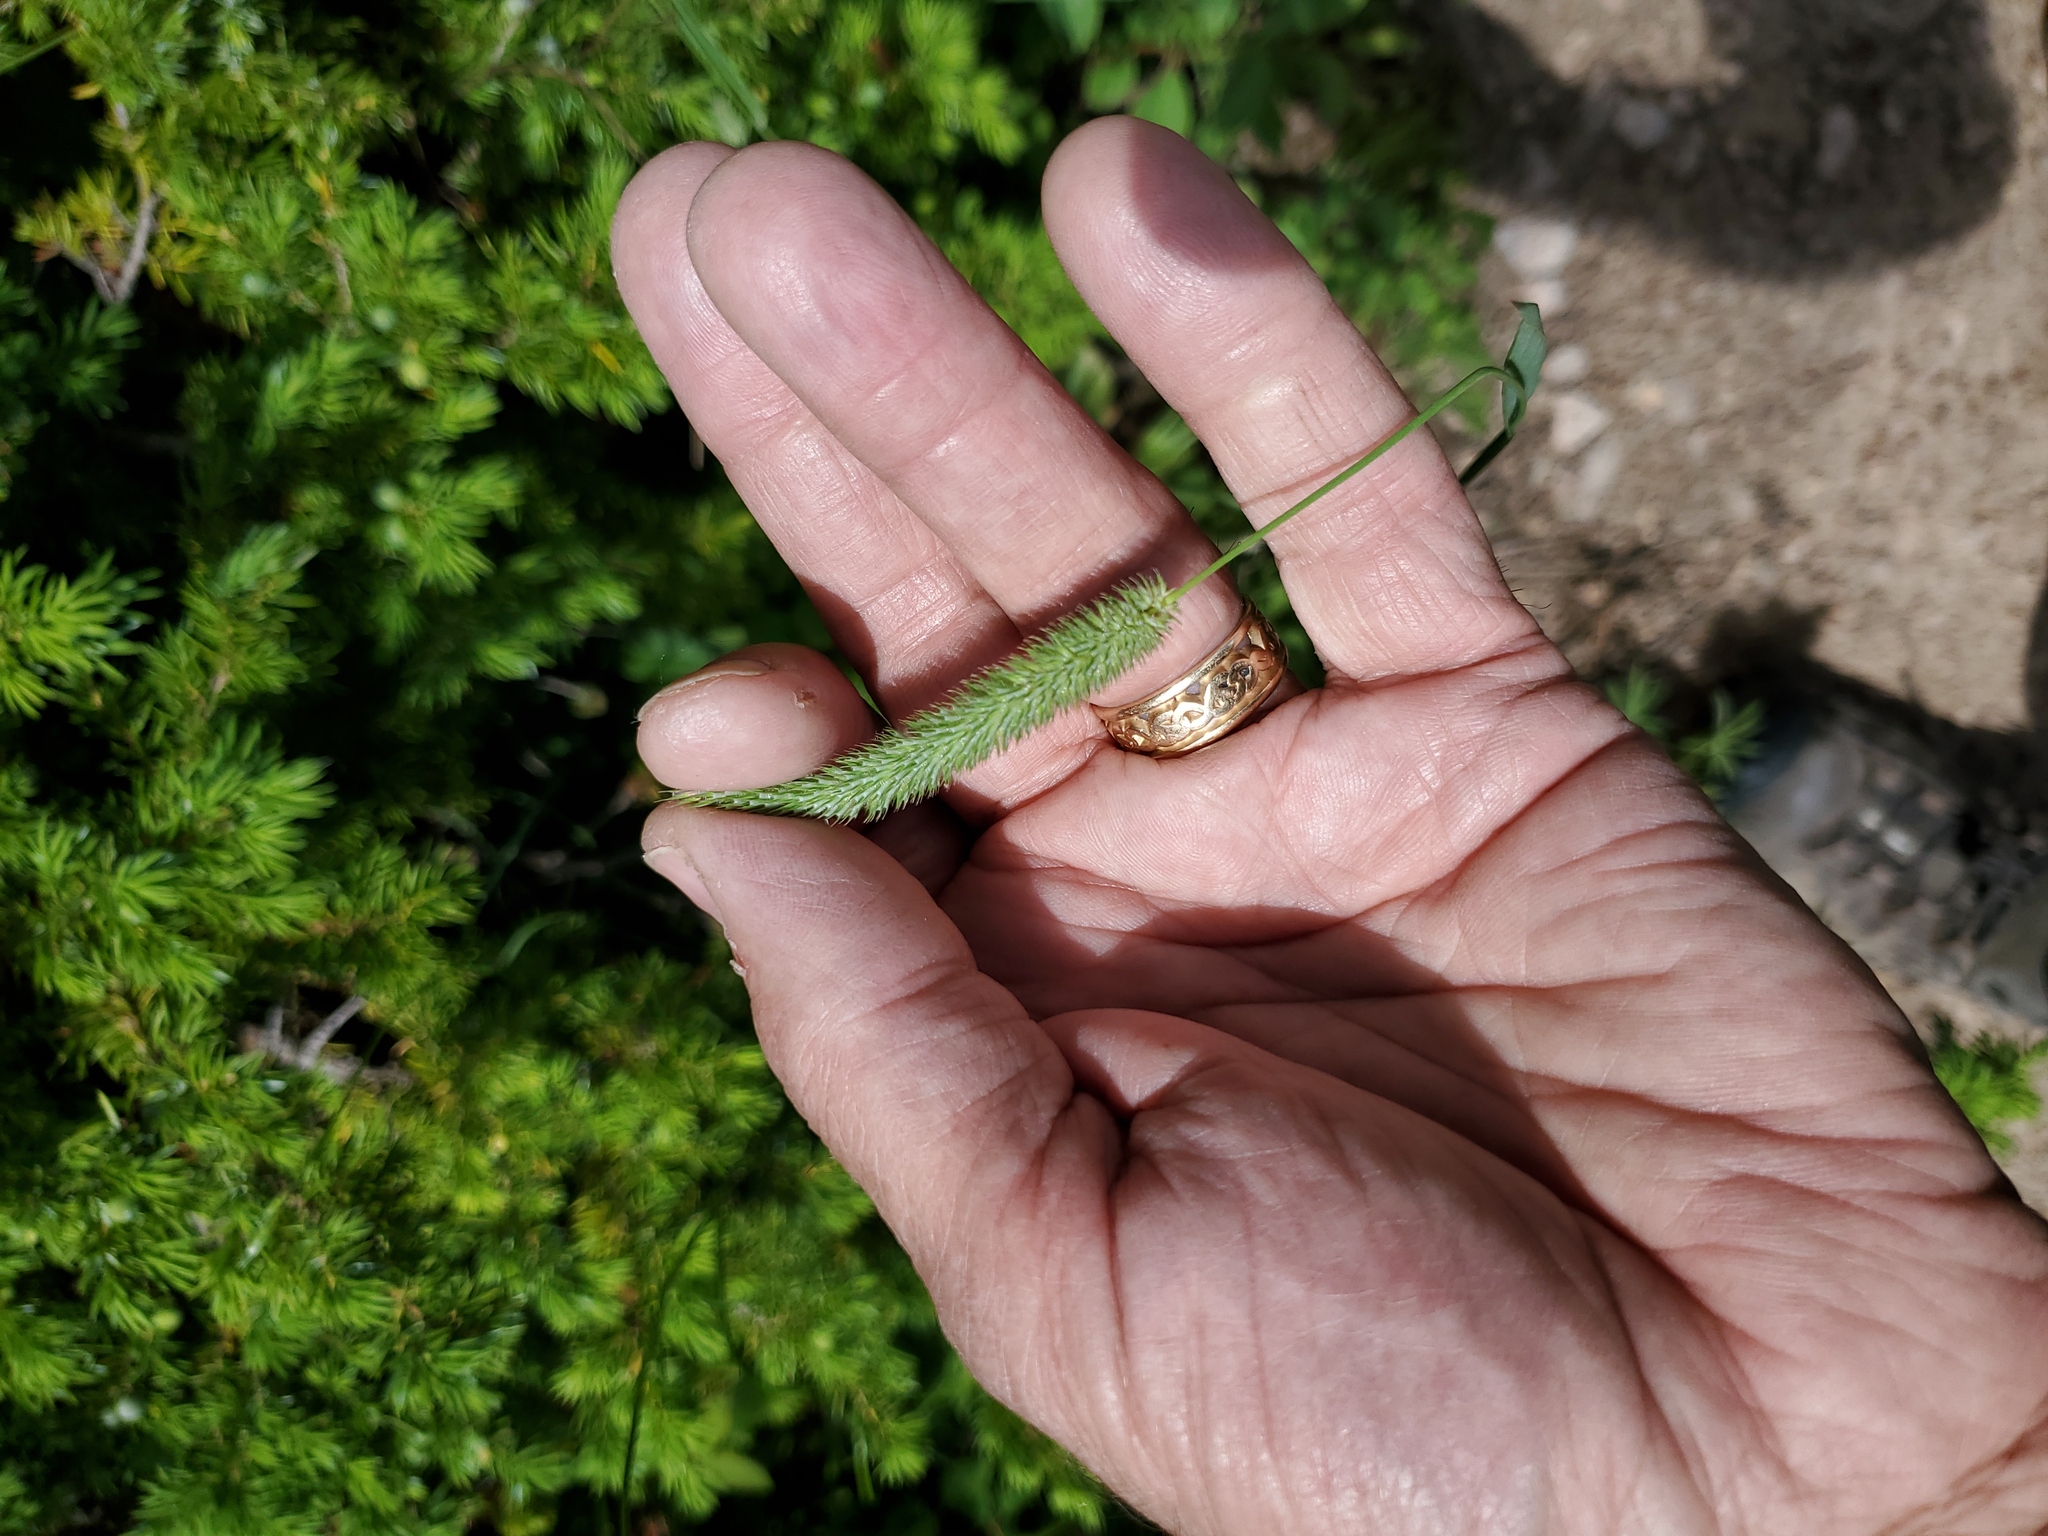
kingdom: Plantae
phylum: Tracheophyta
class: Liliopsida
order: Poales
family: Poaceae
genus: Phleum
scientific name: Phleum pratense
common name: Timothy grass
